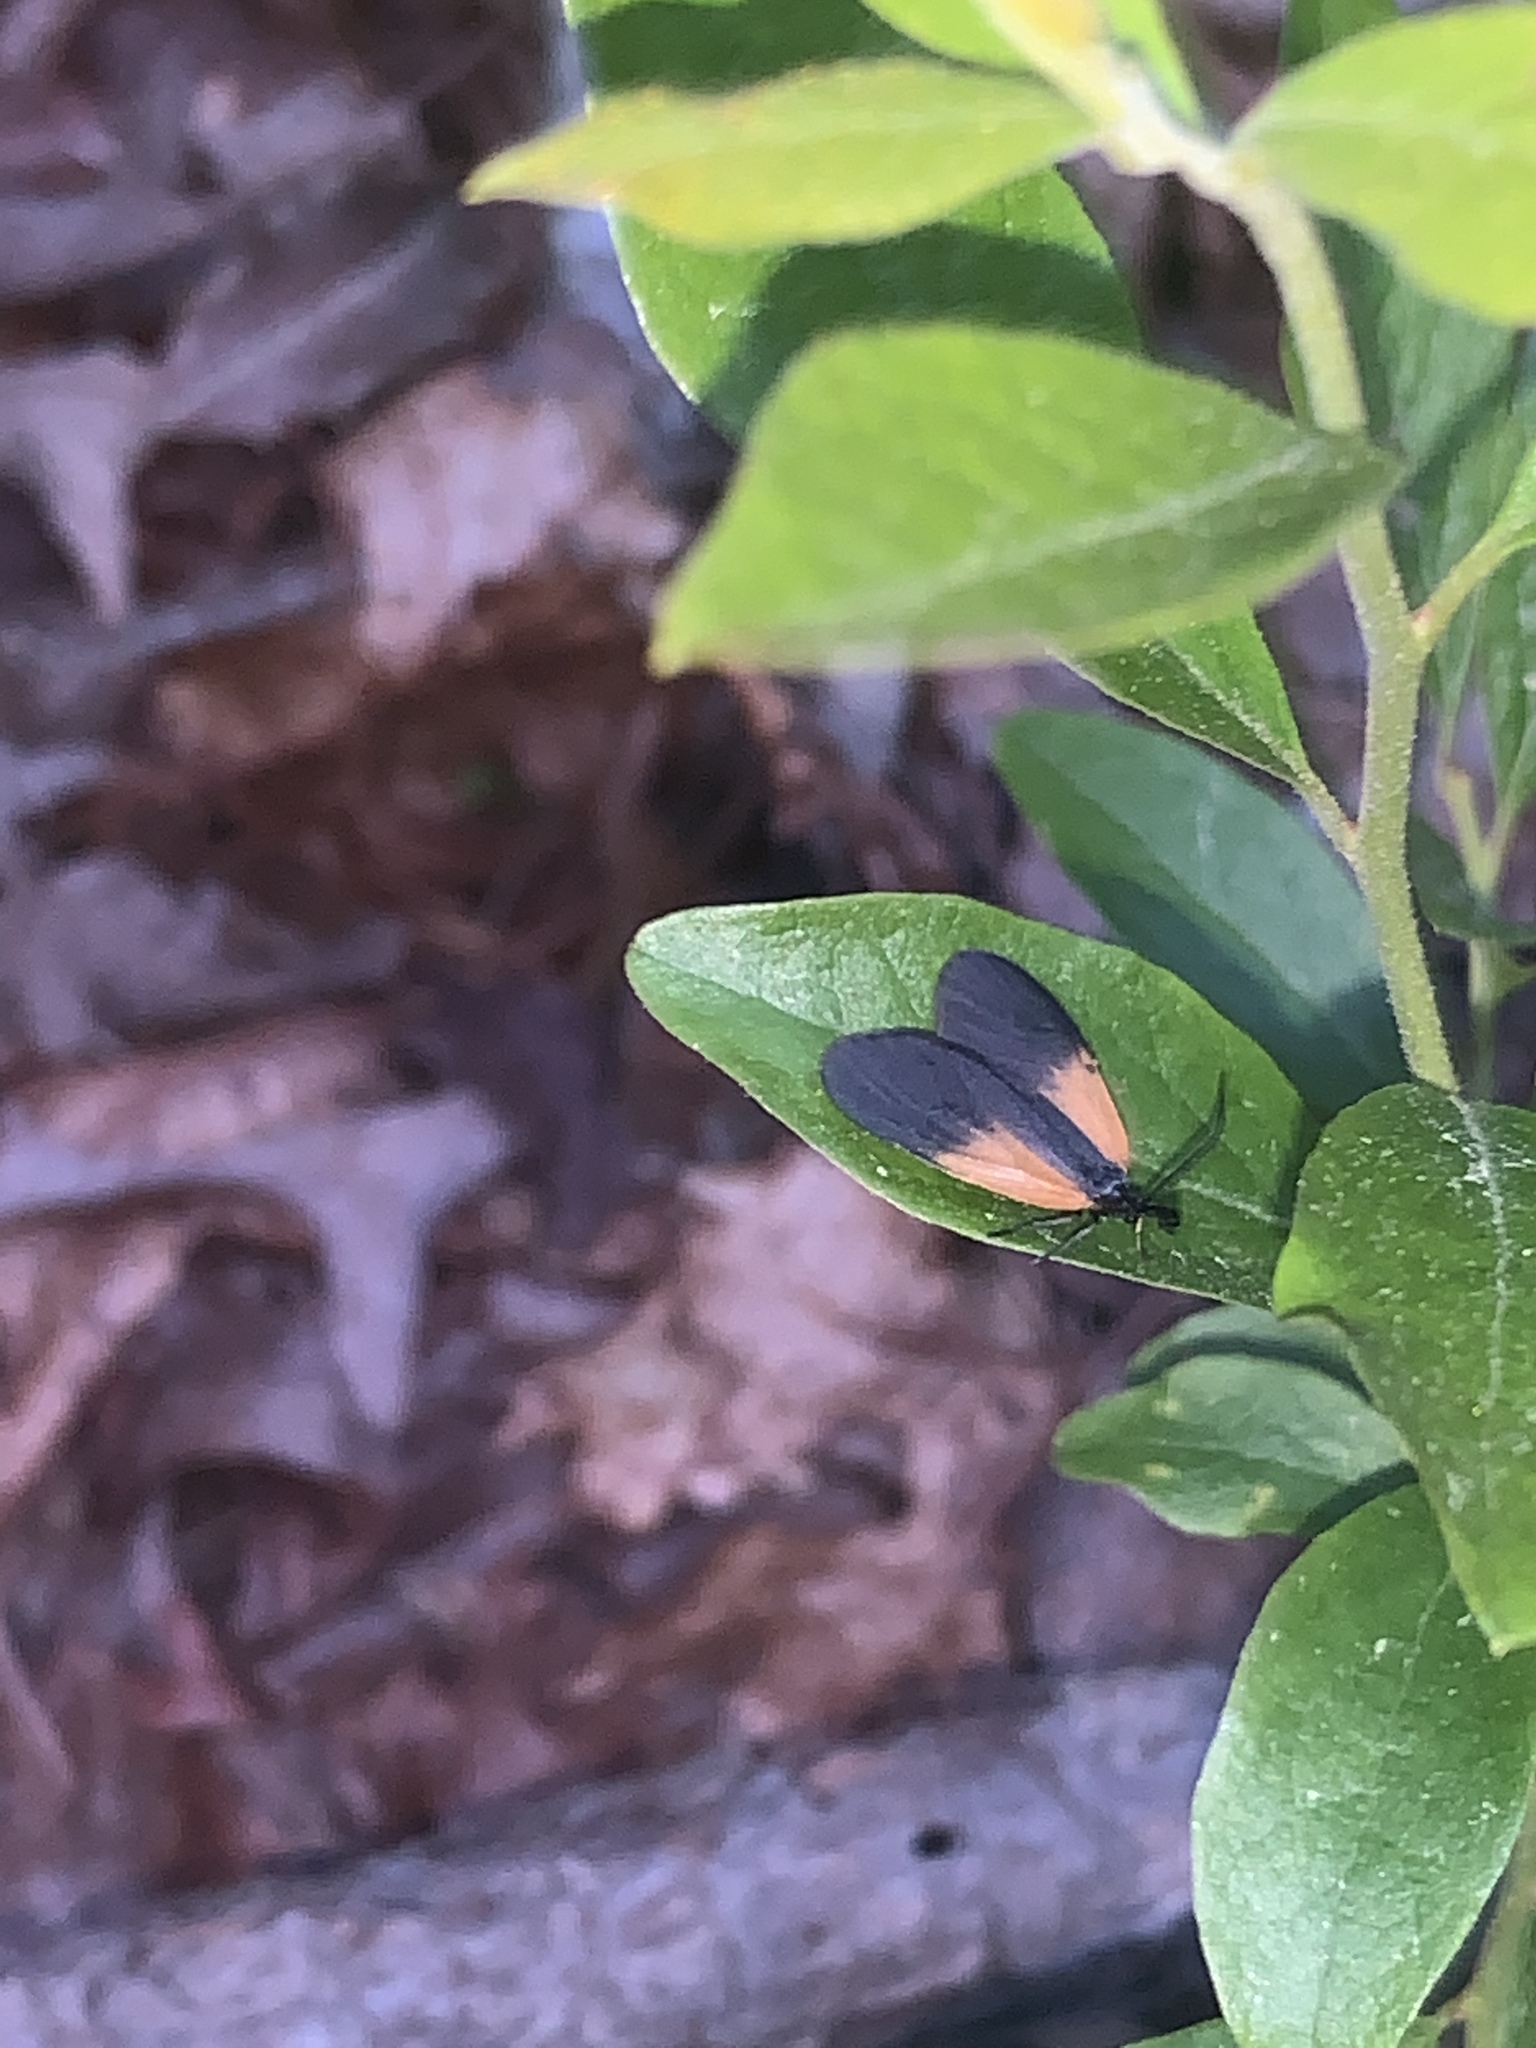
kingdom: Animalia
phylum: Arthropoda
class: Insecta
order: Lepidoptera
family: Zygaenidae
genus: Malthaca
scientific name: Malthaca dimidiata
